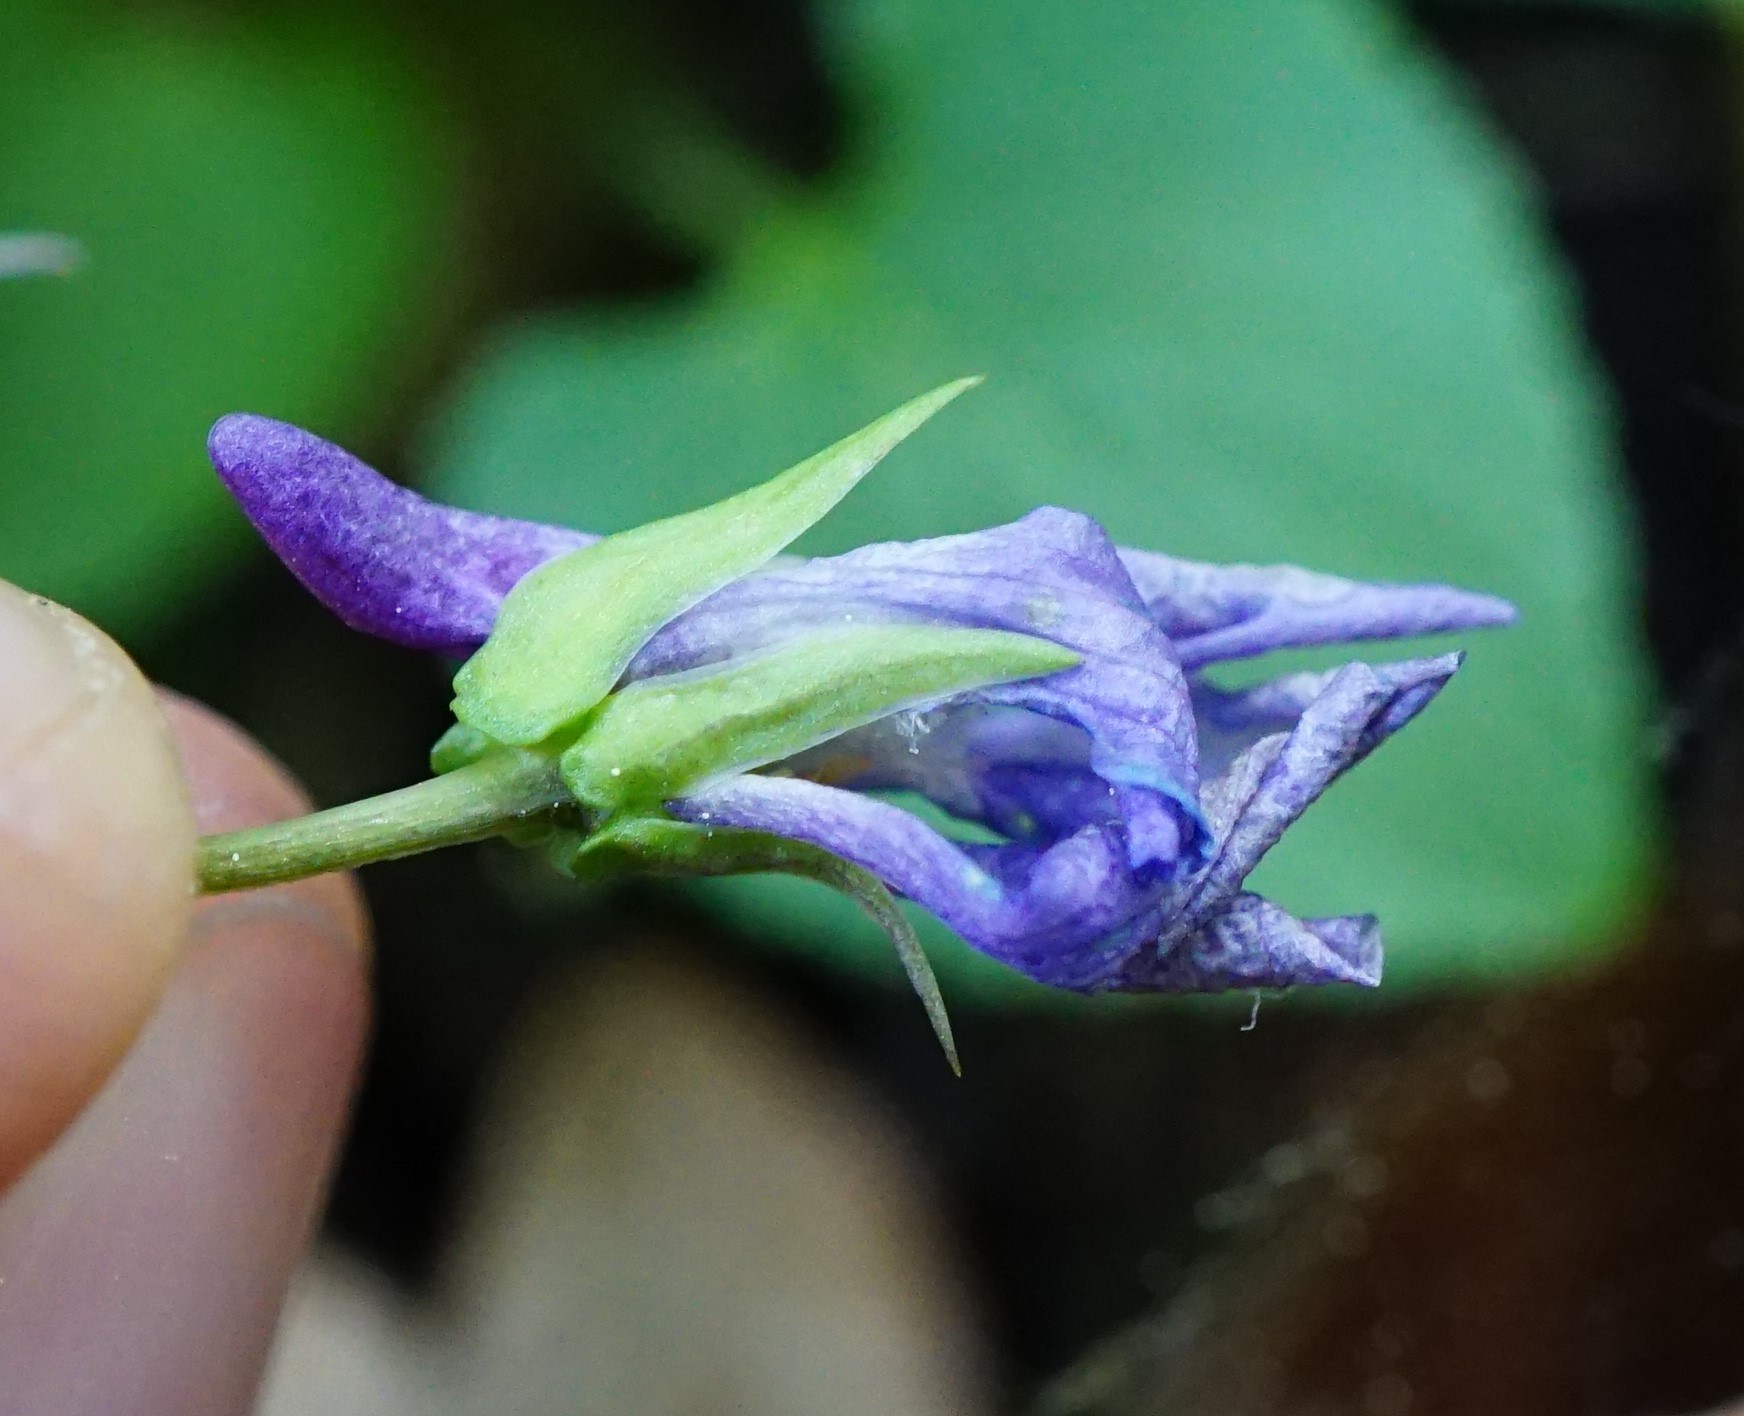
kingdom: Plantae
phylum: Tracheophyta
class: Magnoliopsida
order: Malpighiales
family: Violaceae
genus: Viola
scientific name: Viola reichenbachiana
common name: Early dog-violet
